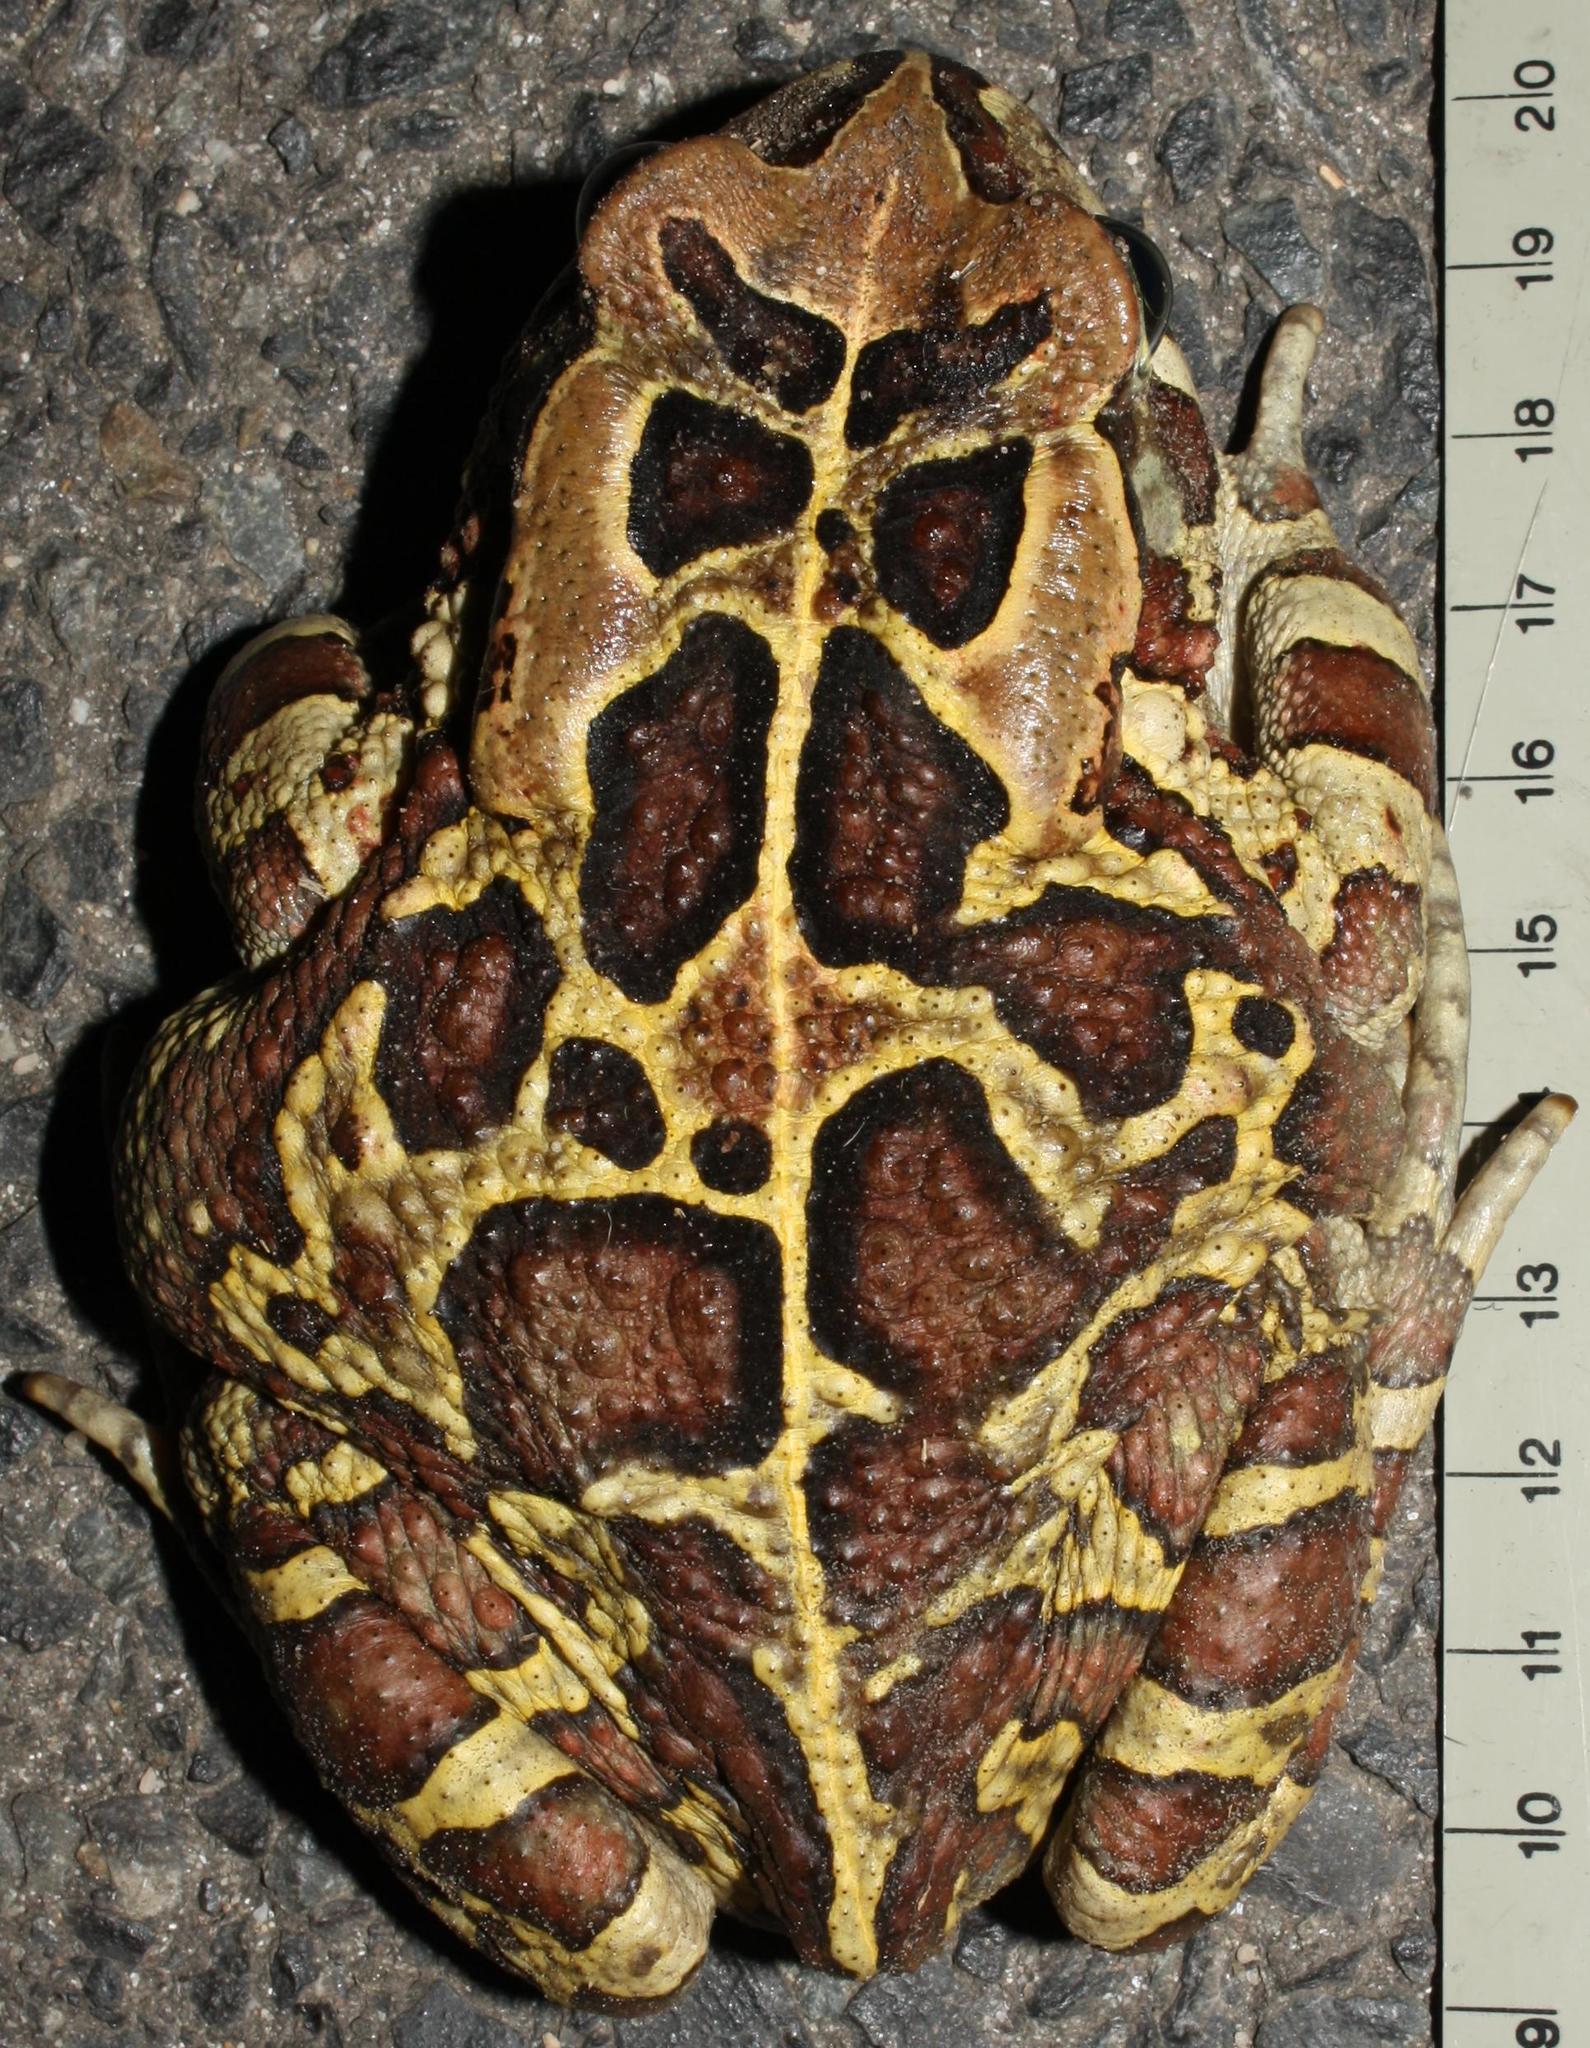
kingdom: Animalia
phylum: Chordata
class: Amphibia
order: Anura
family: Bufonidae
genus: Sclerophrys
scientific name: Sclerophrys pantherina
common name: Panther toad
